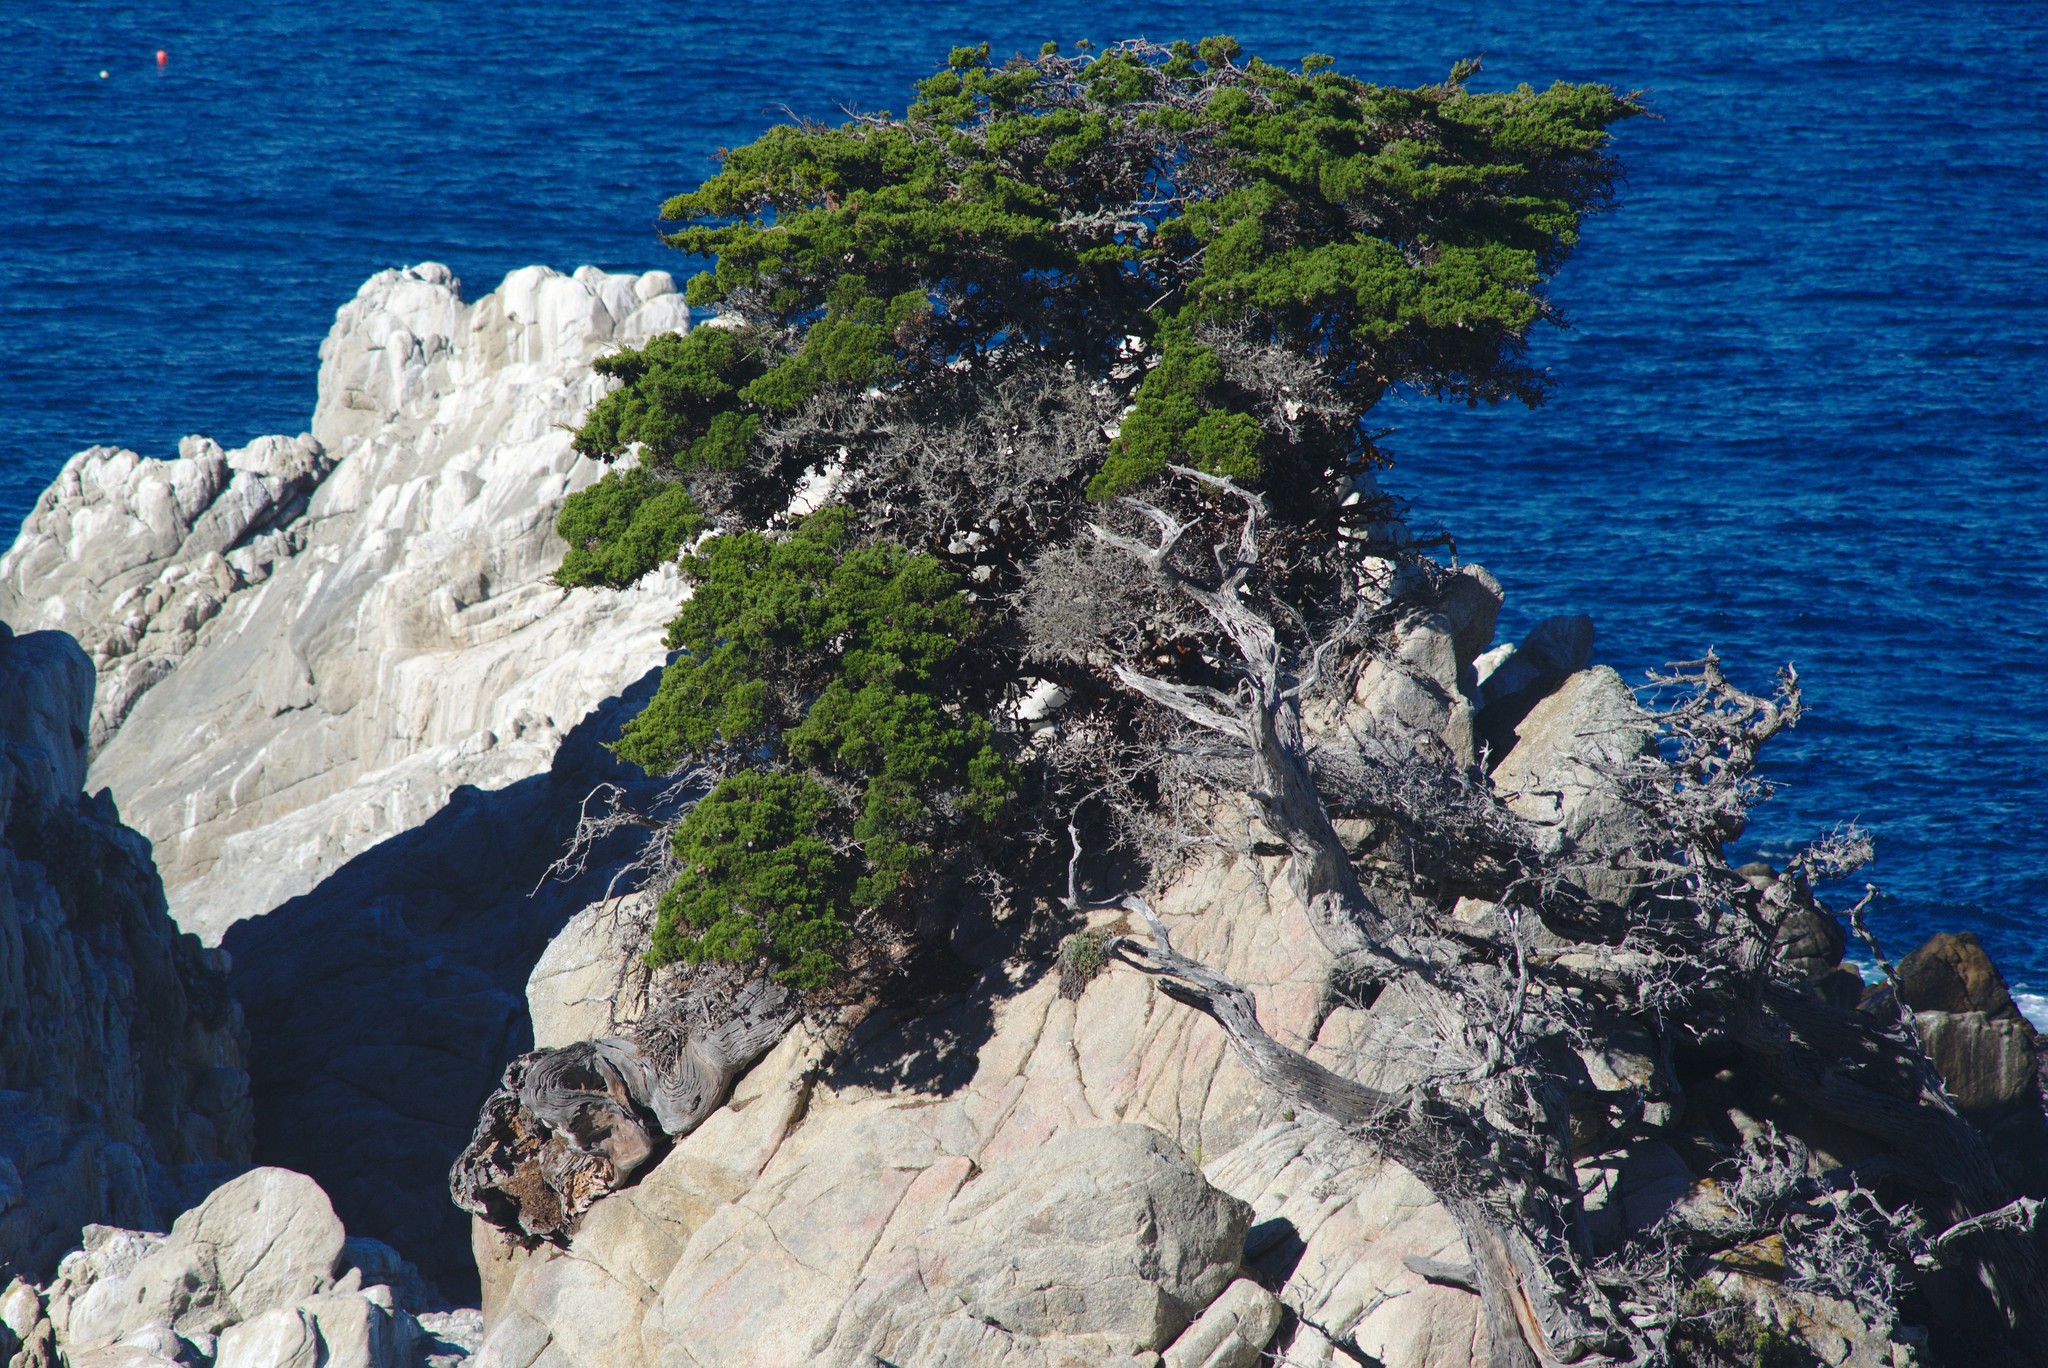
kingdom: Plantae
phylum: Tracheophyta
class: Pinopsida
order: Pinales
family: Cupressaceae
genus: Cupressus
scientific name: Cupressus macrocarpa
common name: Monterey cypress
